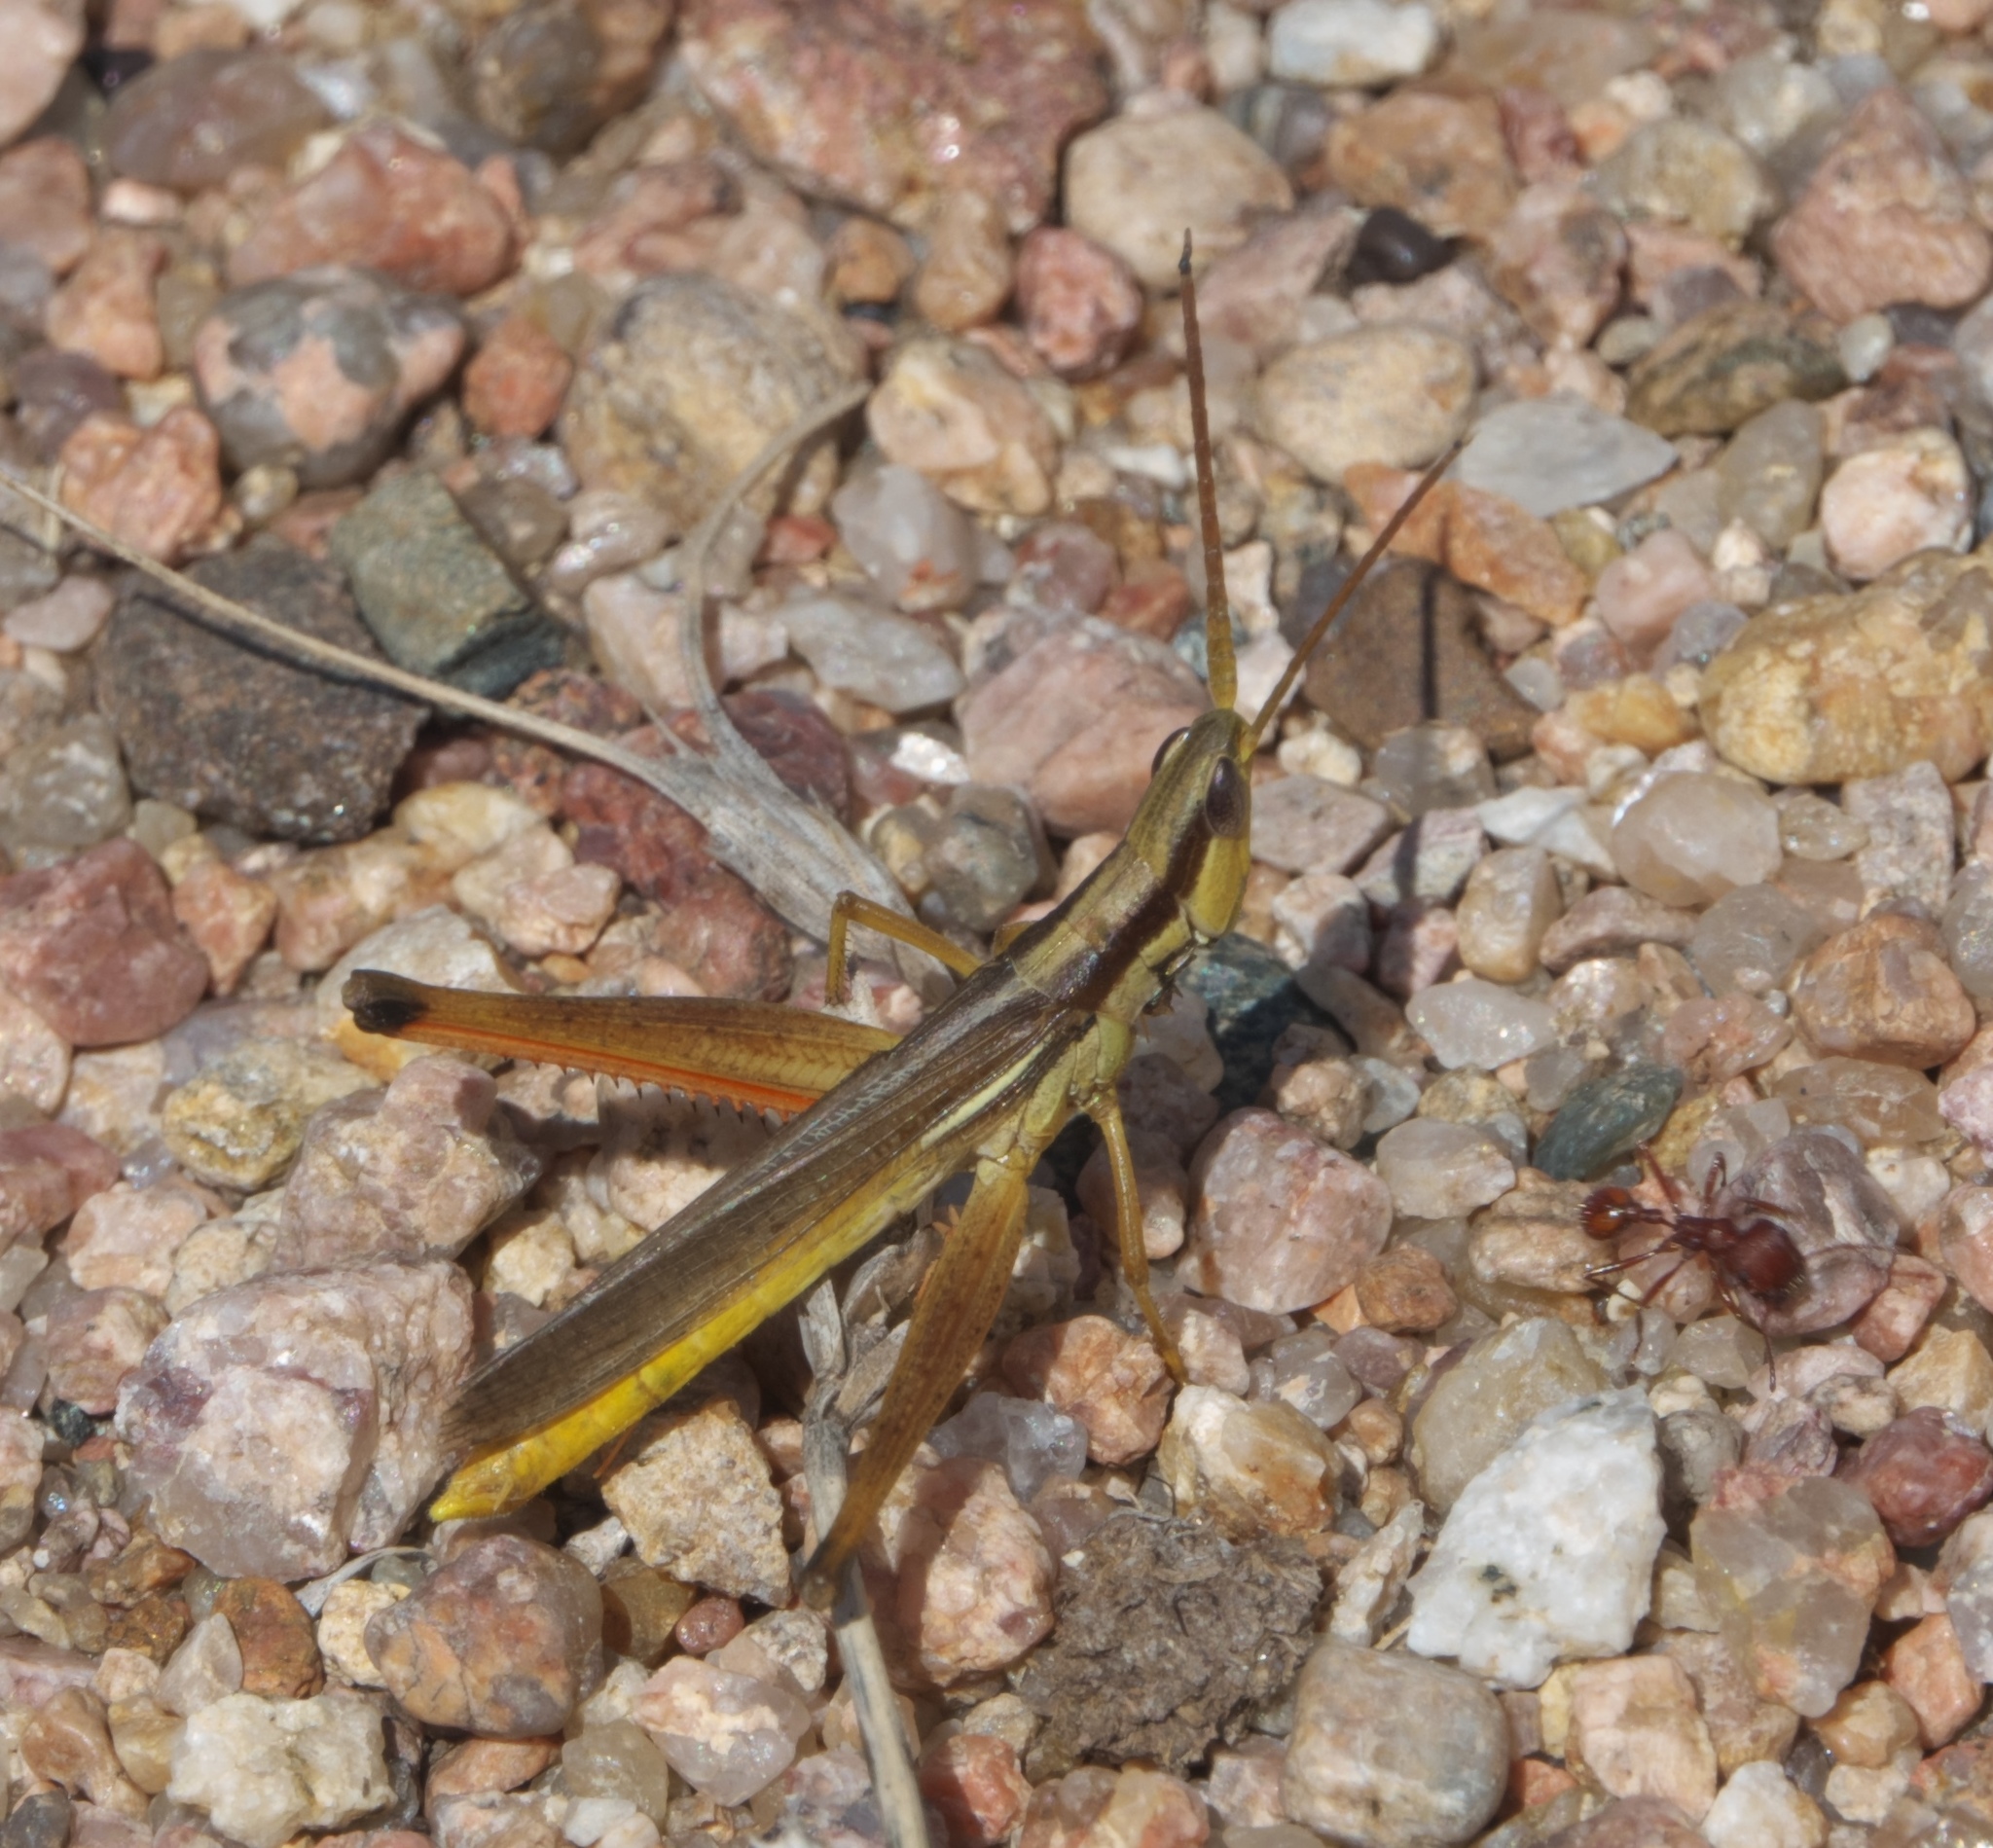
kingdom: Animalia
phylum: Arthropoda
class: Insecta
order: Orthoptera
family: Acrididae
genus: Mermiria
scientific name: Mermiria bivittata
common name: Two-striped mermiria grasshopper
